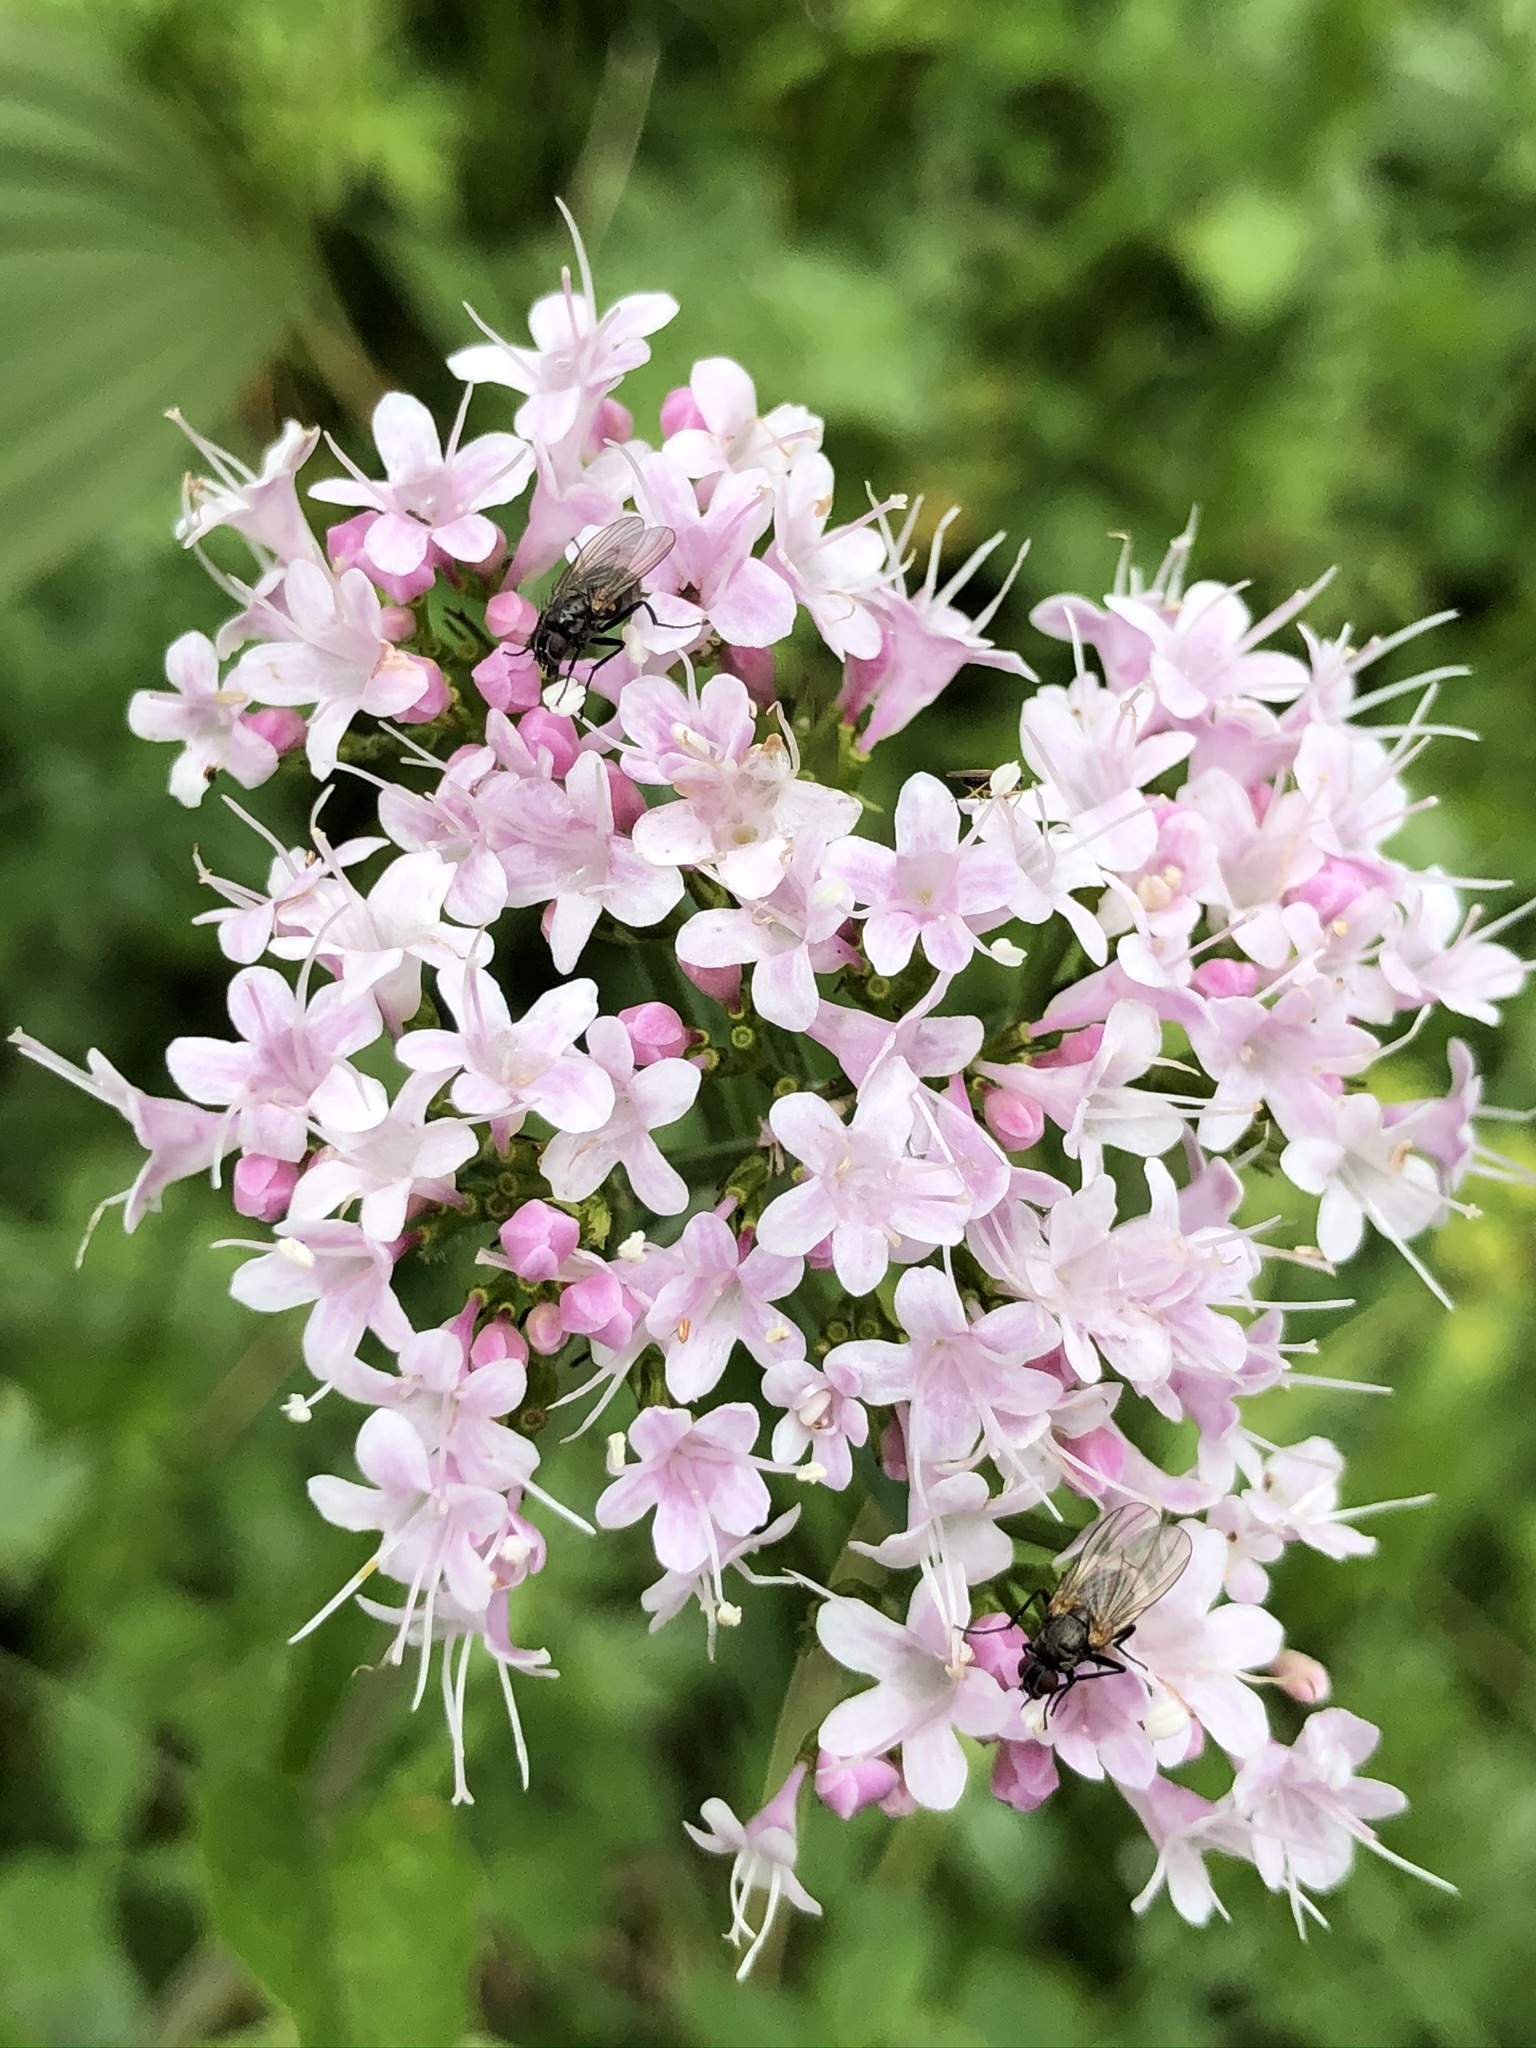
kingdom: Plantae
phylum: Tracheophyta
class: Magnoliopsida
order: Dipsacales
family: Caprifoliaceae
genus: Valeriana
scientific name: Valeriana montana
